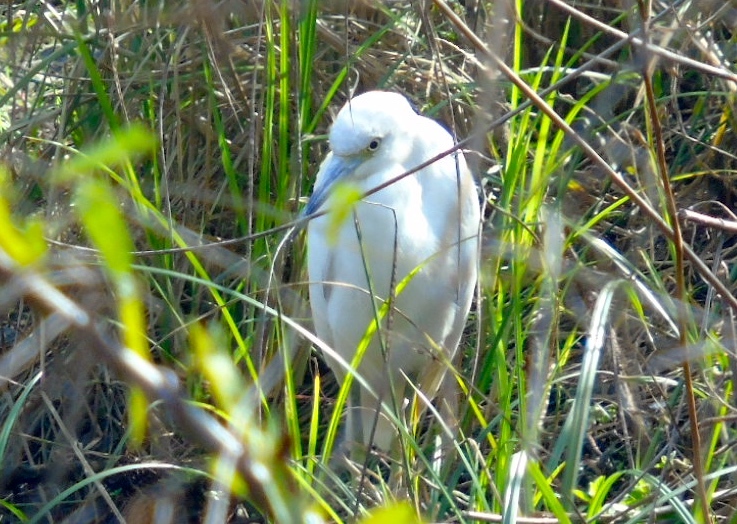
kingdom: Animalia
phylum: Chordata
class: Aves
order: Pelecaniformes
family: Ardeidae
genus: Egretta
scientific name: Egretta caerulea
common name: Little blue heron
